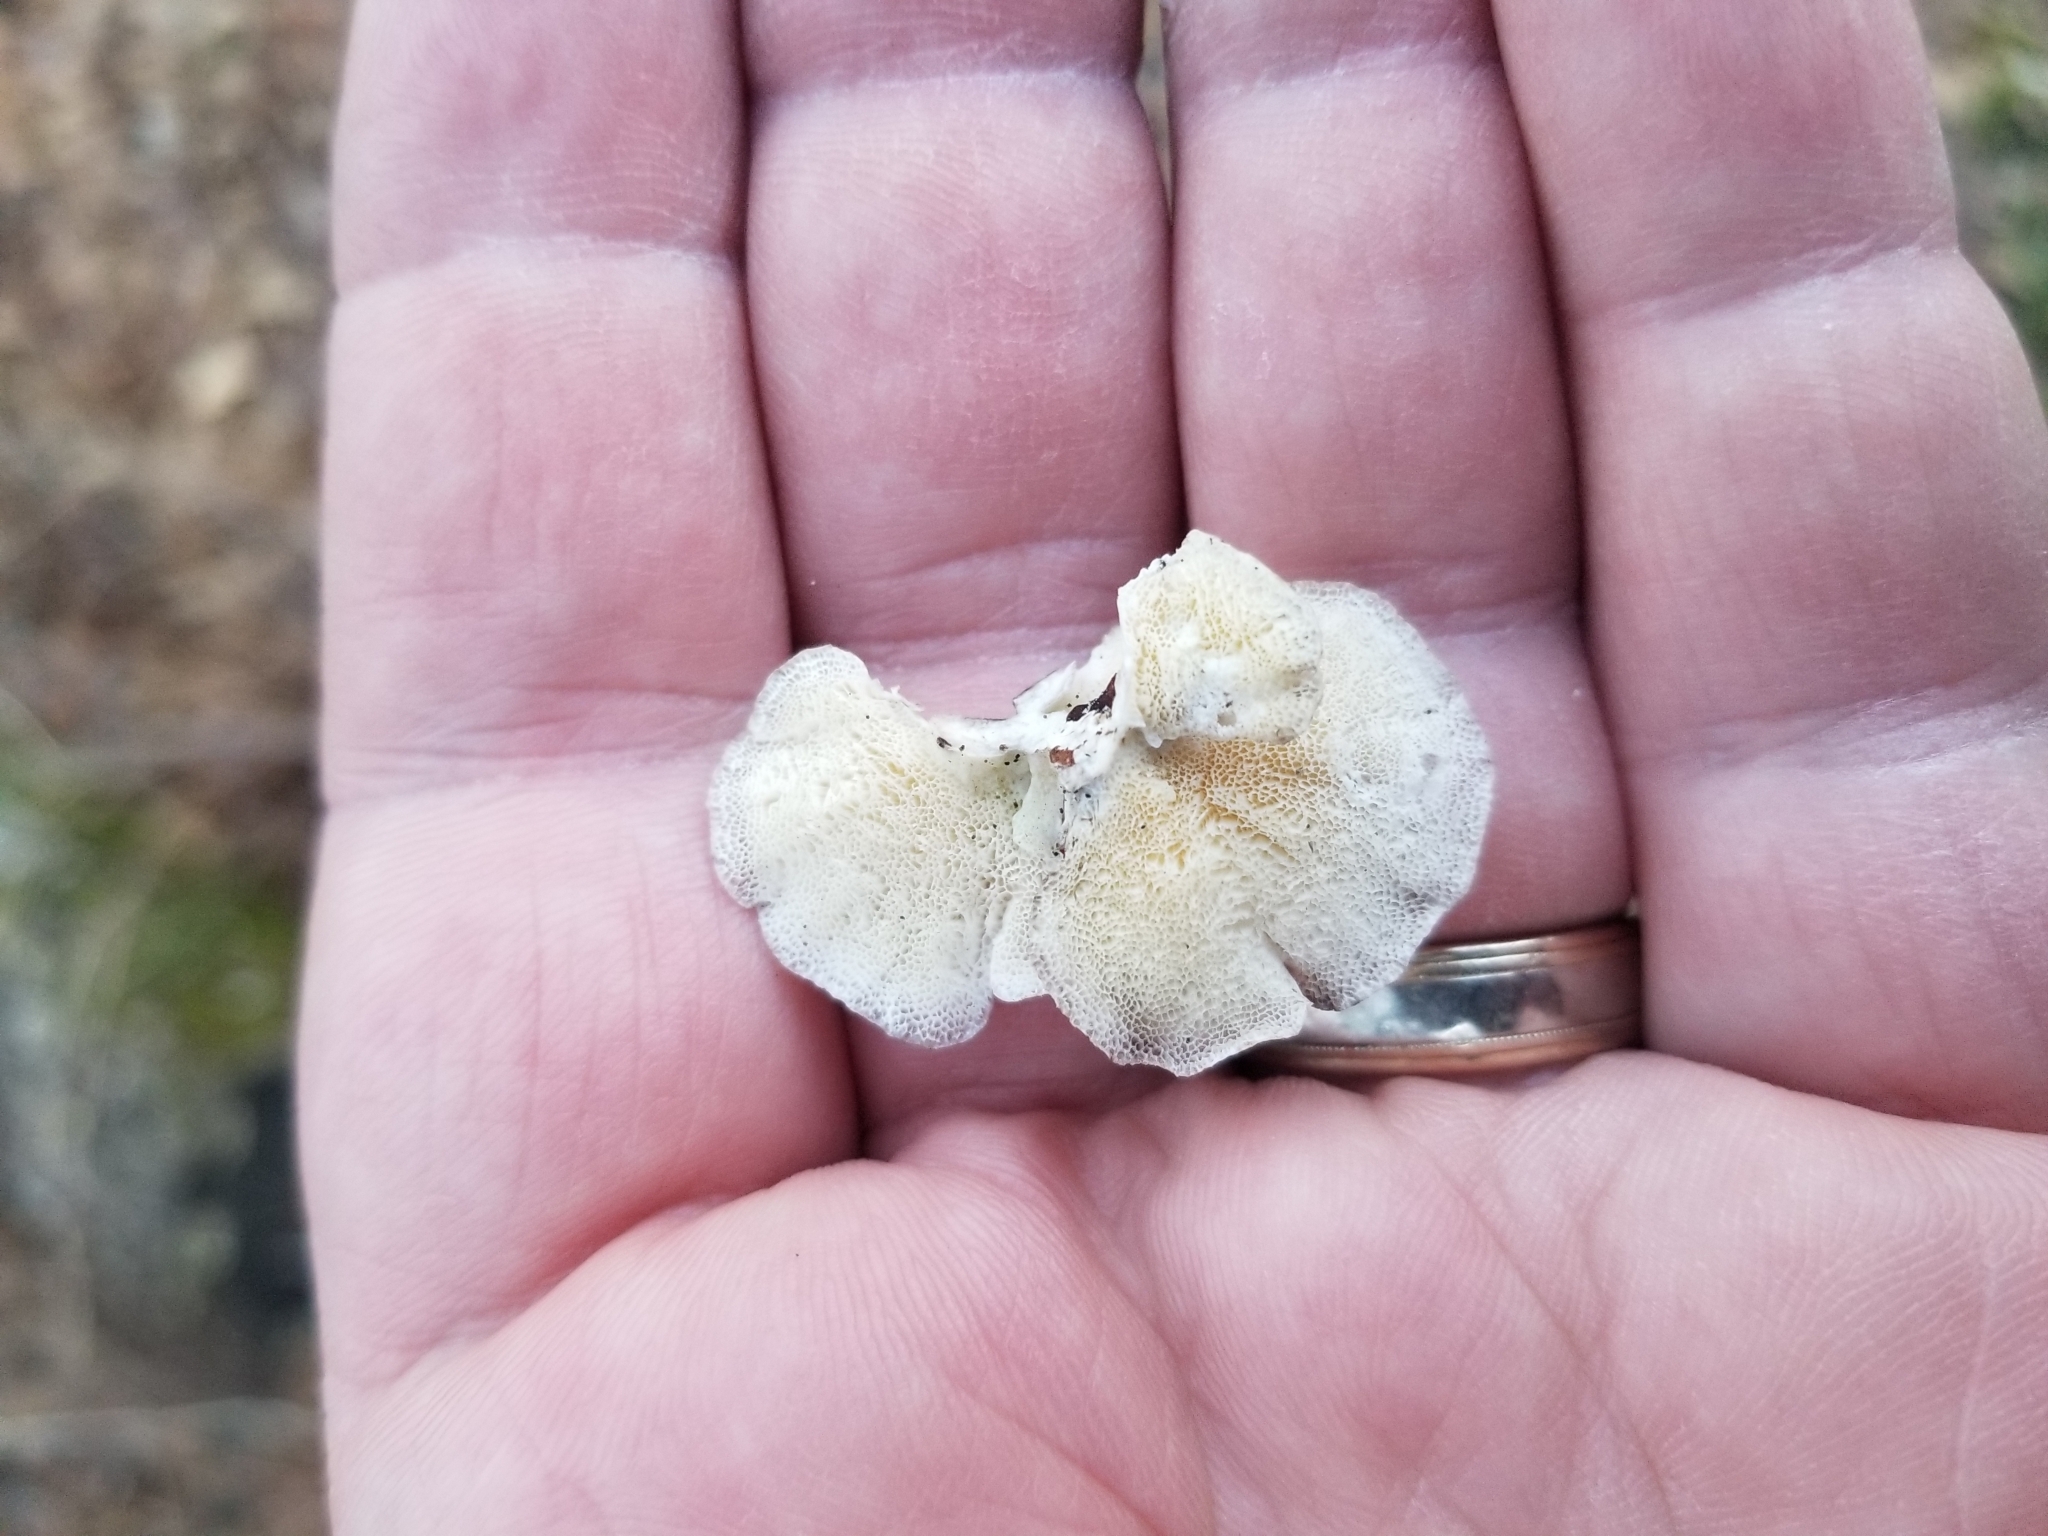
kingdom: Fungi
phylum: Basidiomycota
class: Agaricomycetes
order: Polyporales
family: Polyporaceae
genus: Poronidulus
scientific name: Poronidulus conchifer
